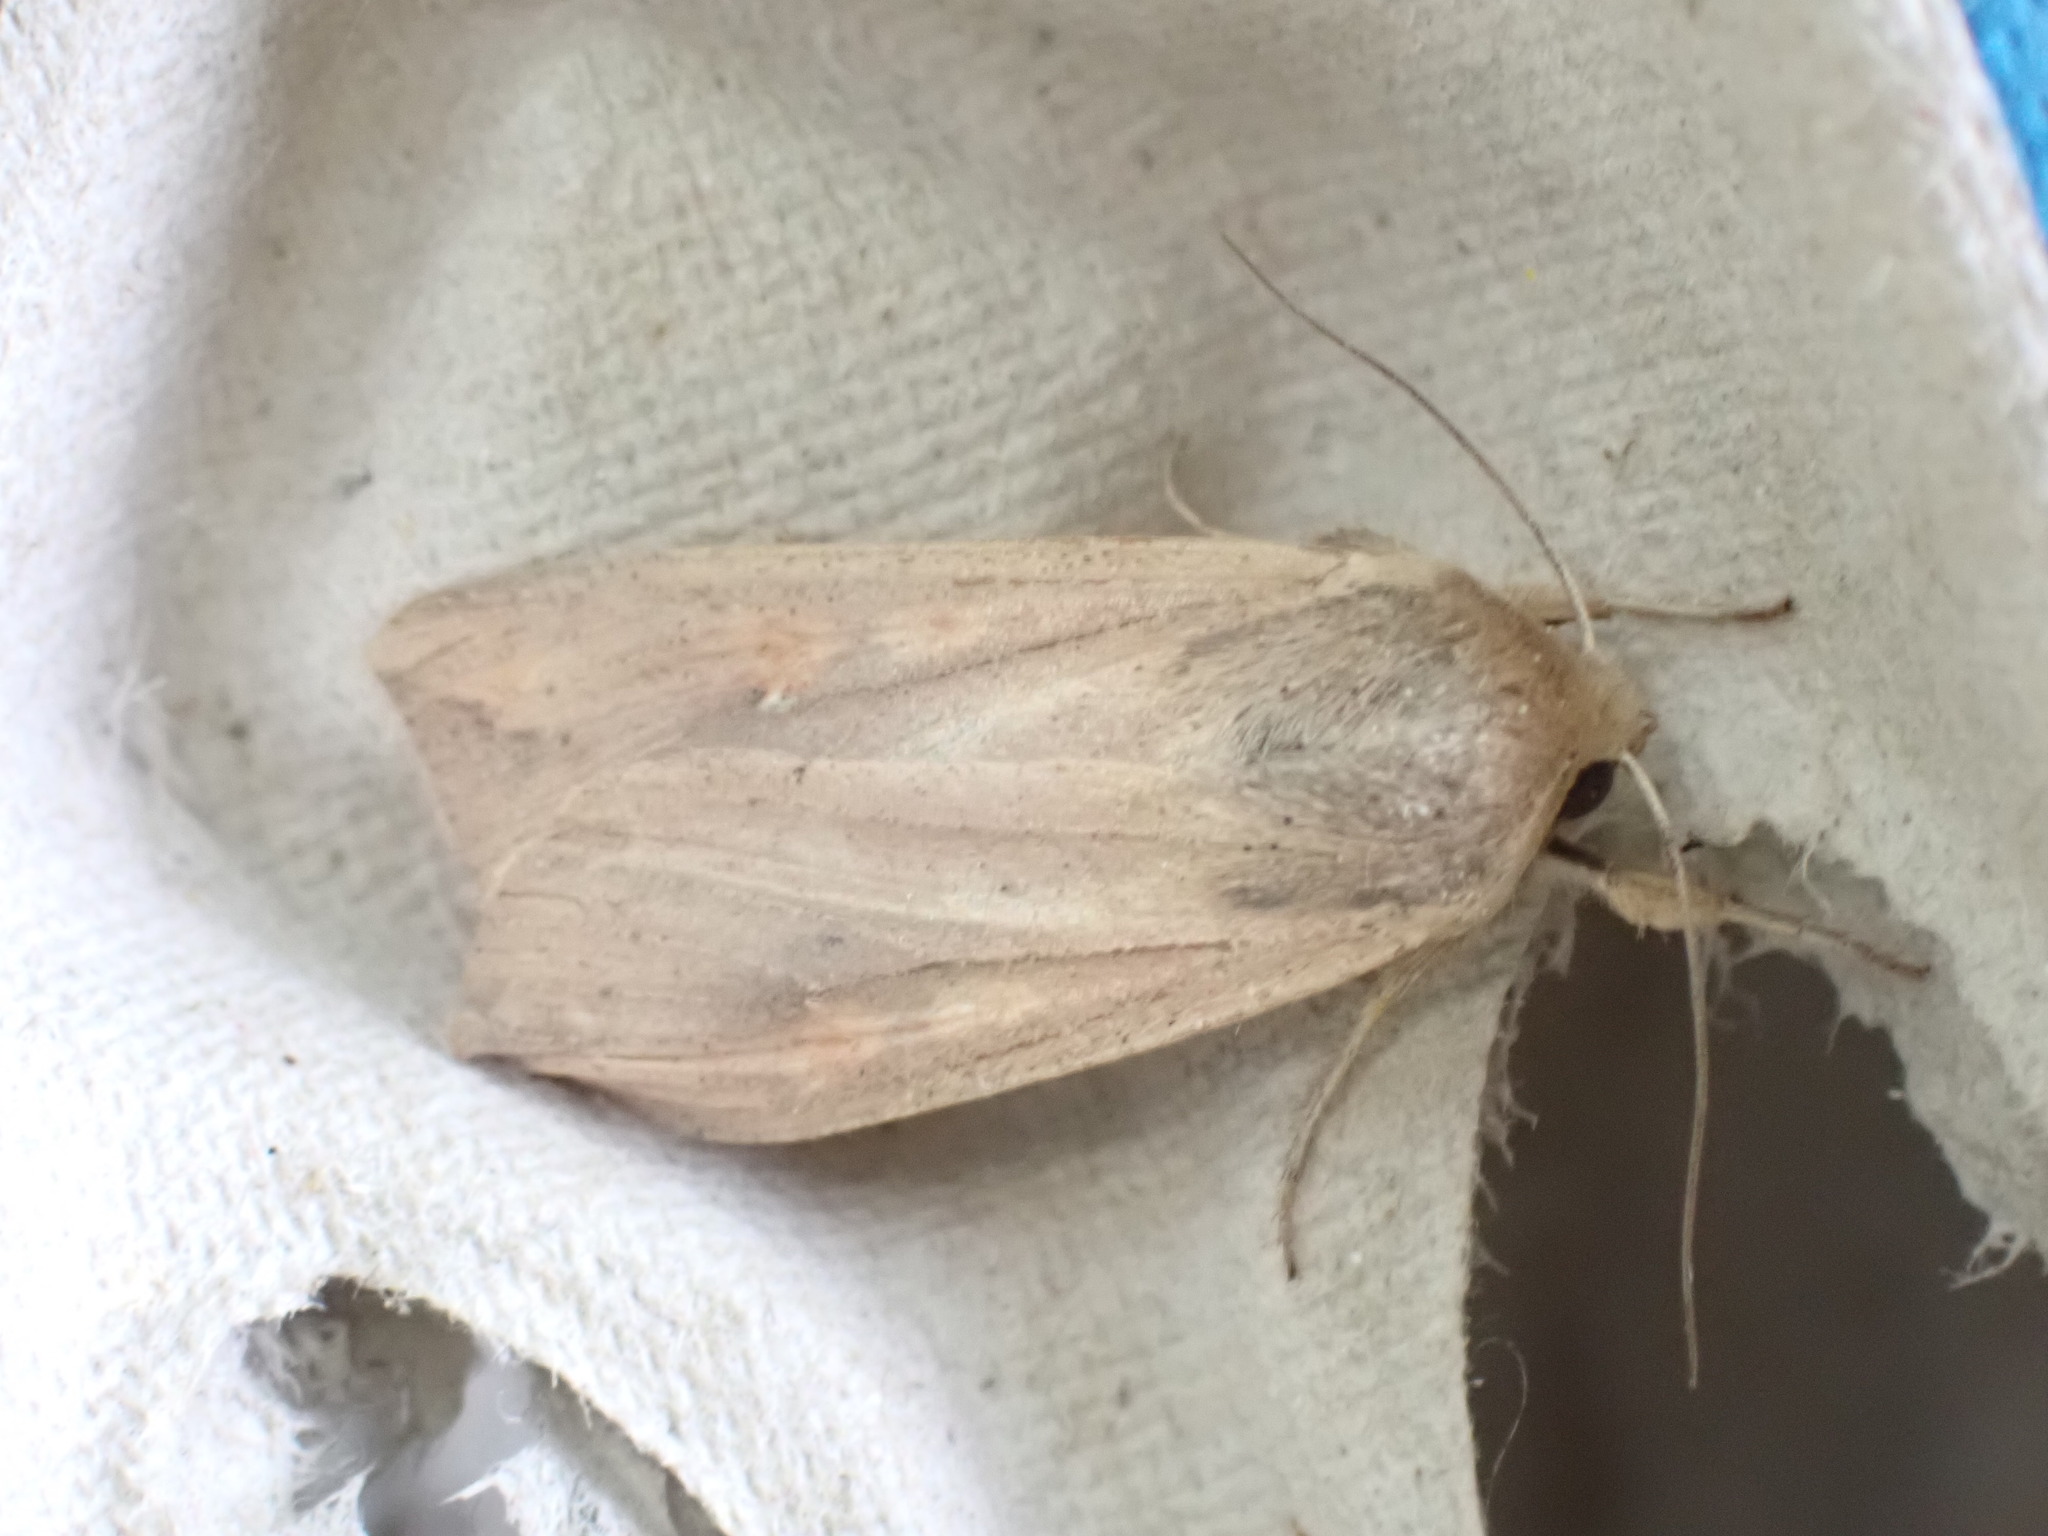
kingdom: Animalia
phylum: Arthropoda
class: Insecta
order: Lepidoptera
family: Noctuidae
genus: Mythimna
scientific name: Mythimna unipuncta
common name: White-speck
